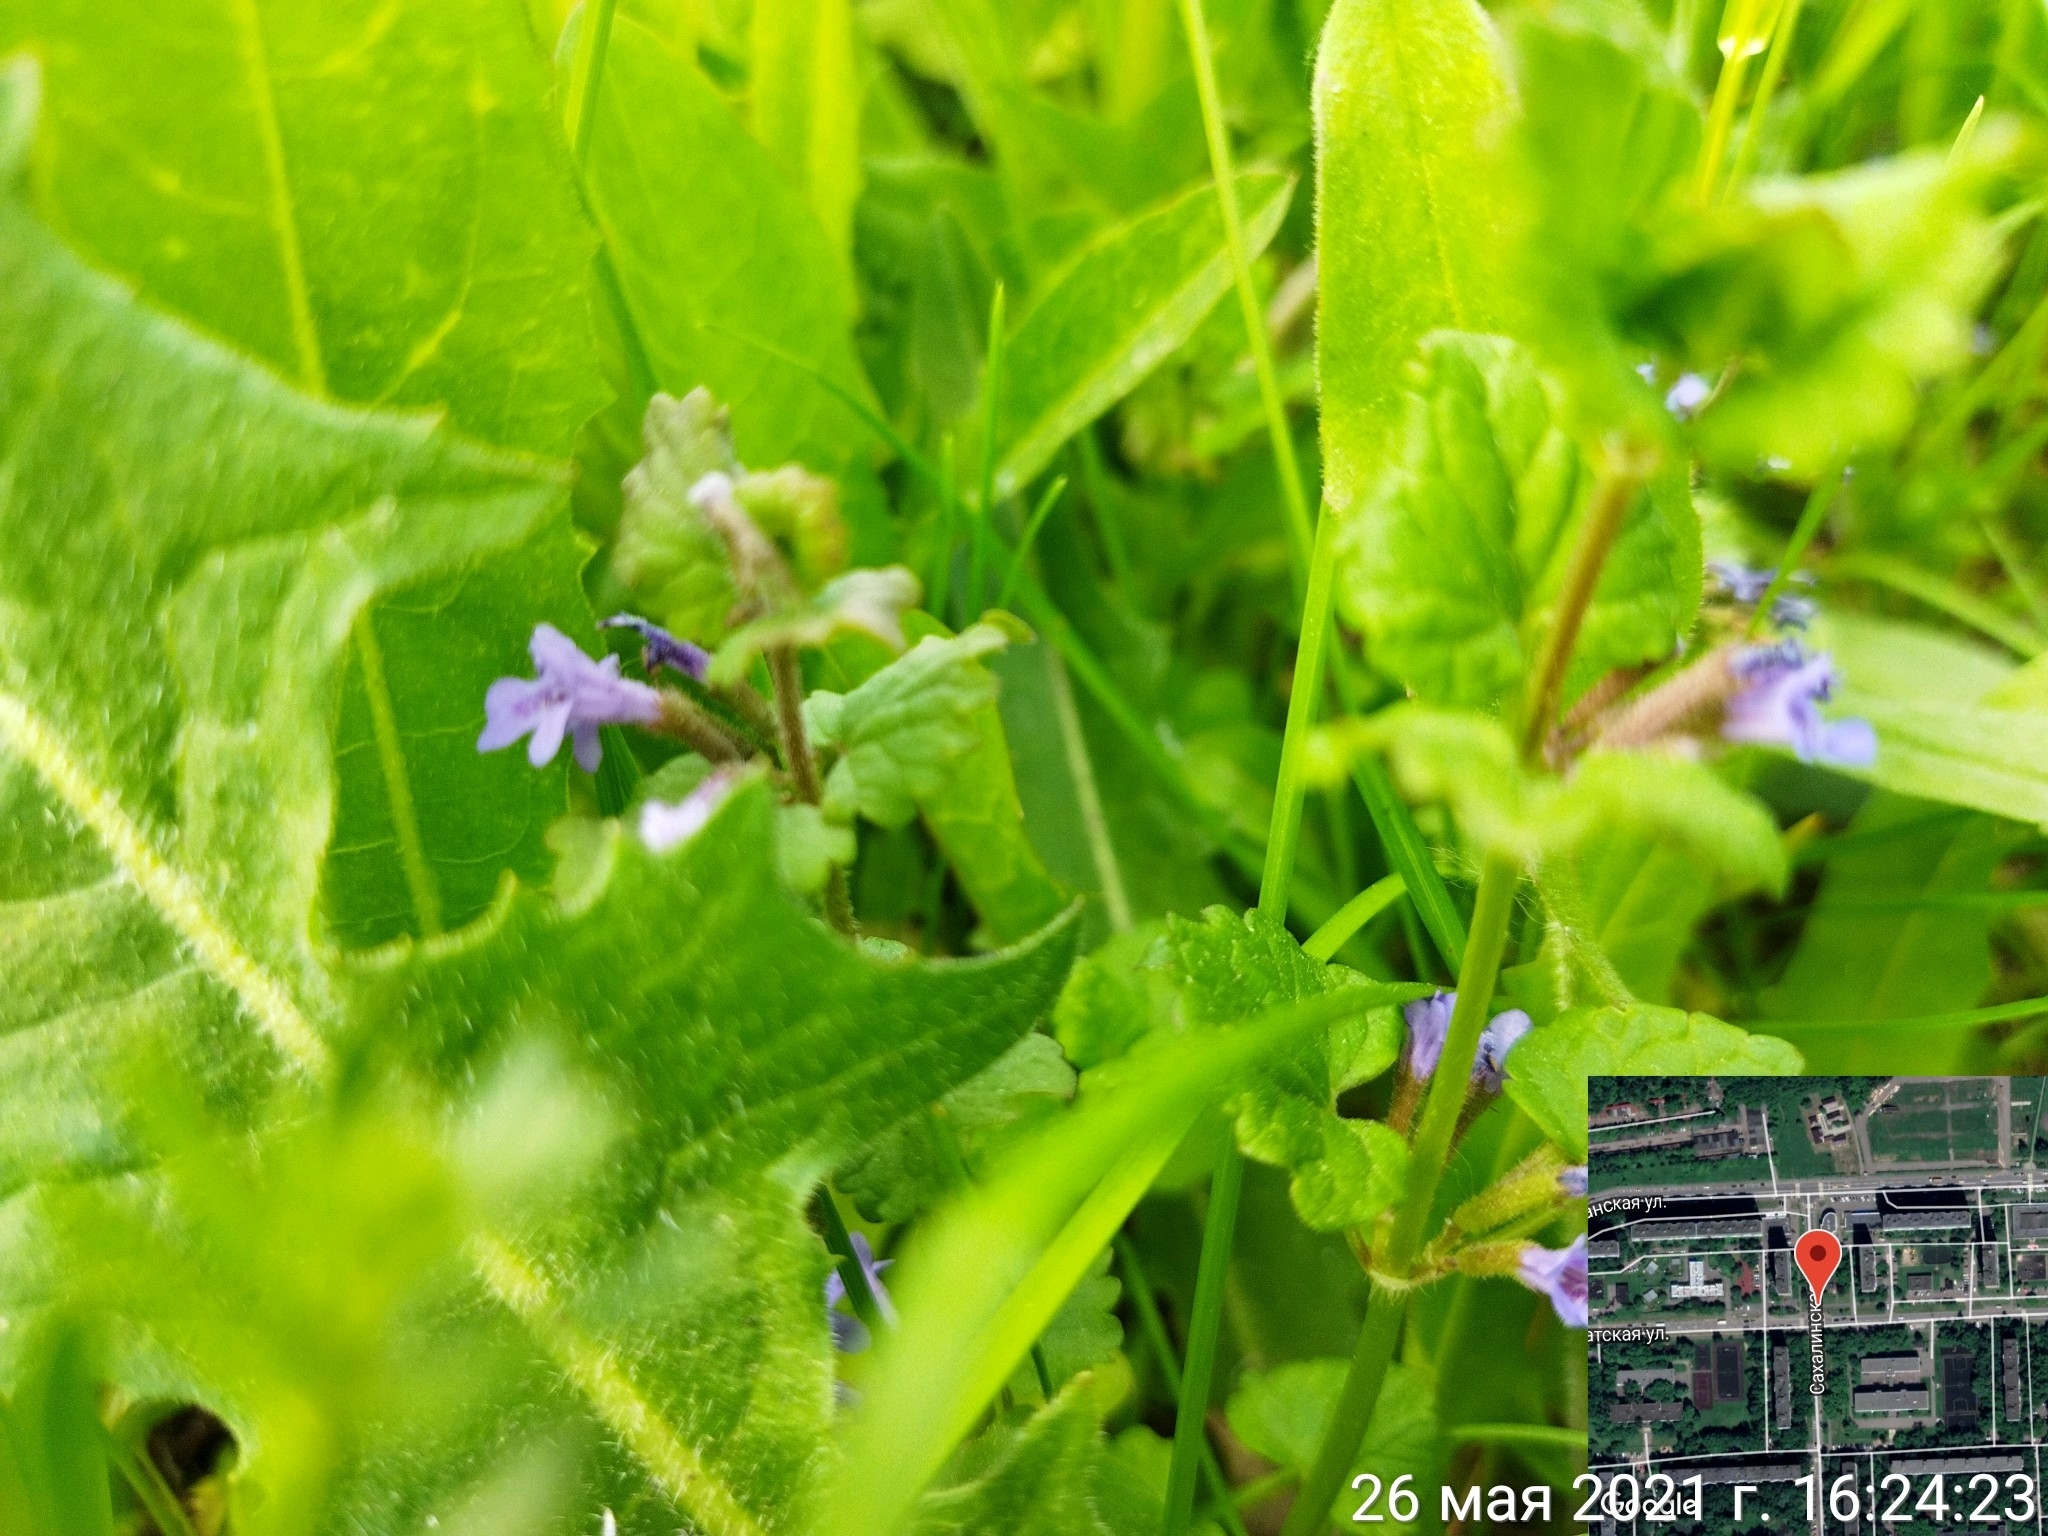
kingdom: Plantae
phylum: Tracheophyta
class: Magnoliopsida
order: Lamiales
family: Lamiaceae
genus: Glechoma
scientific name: Glechoma hederacea
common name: Ground ivy
